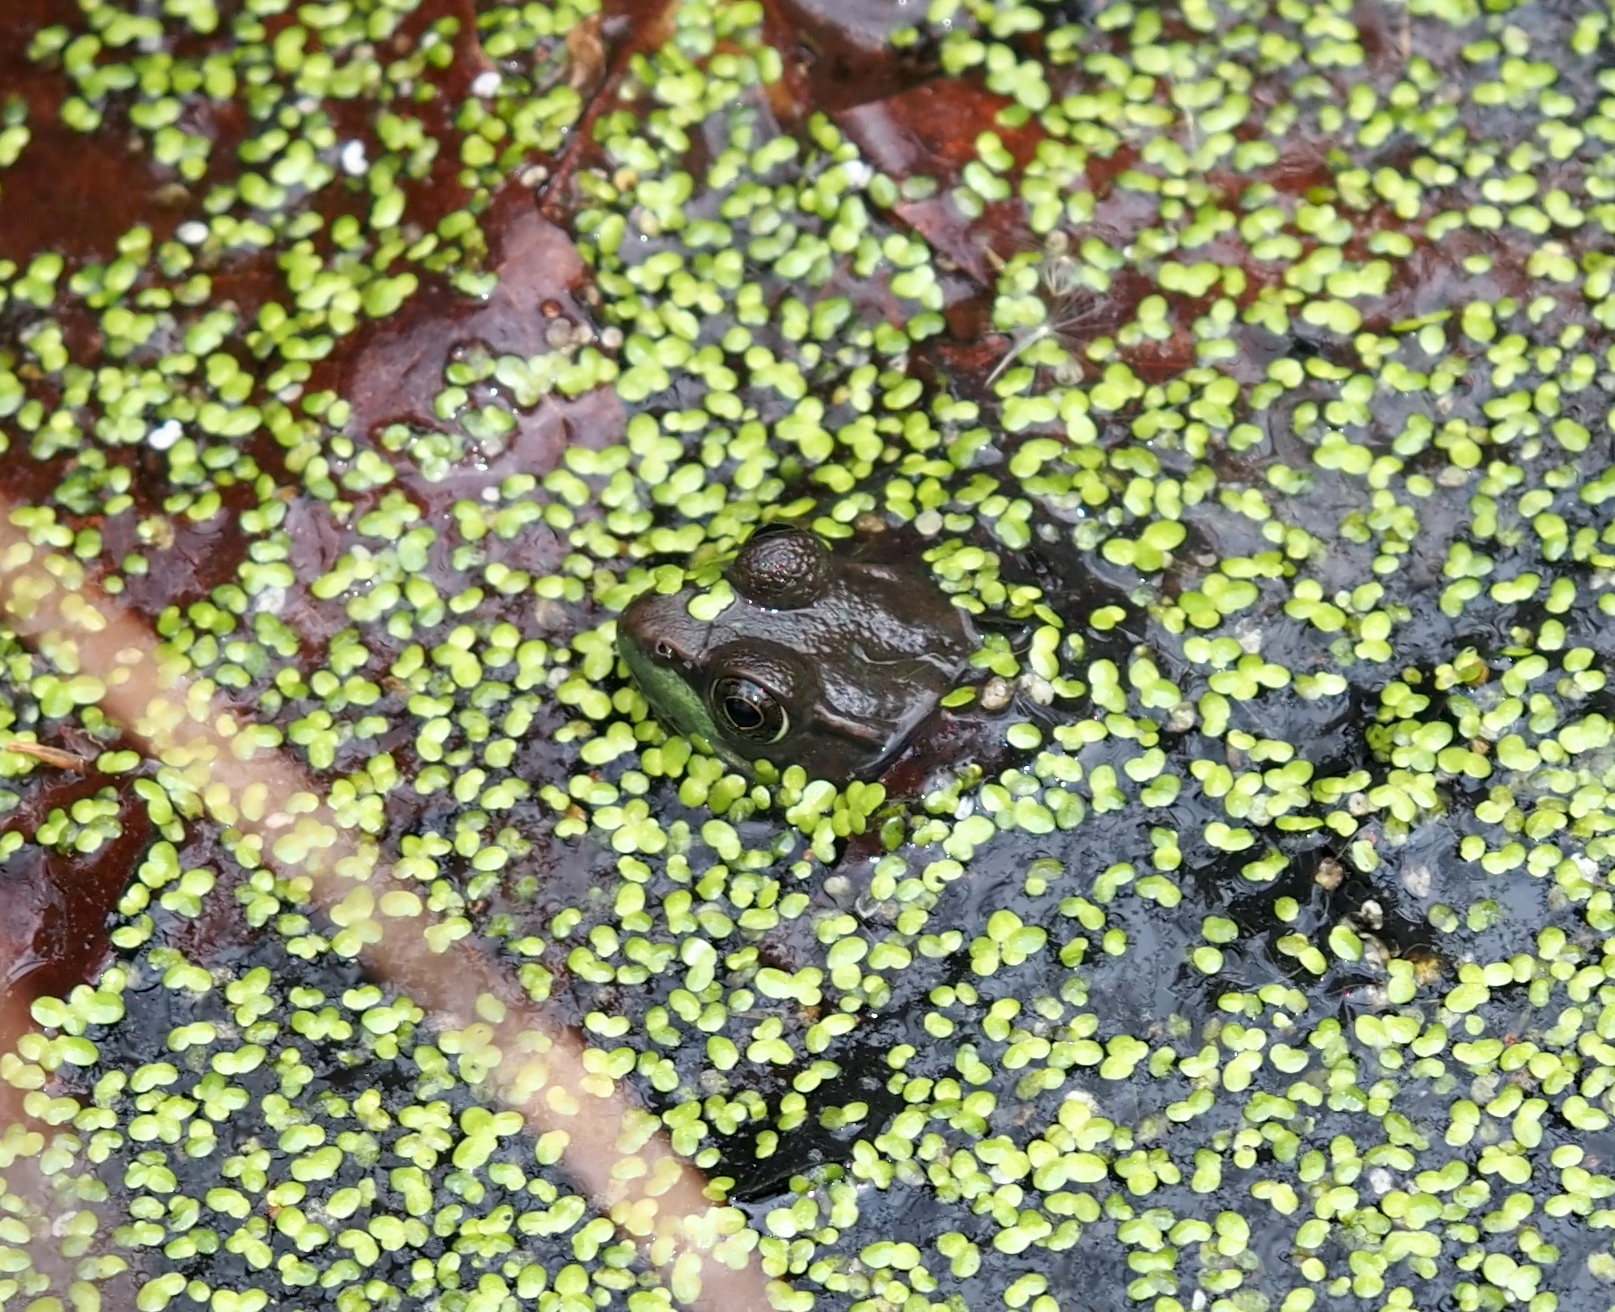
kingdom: Animalia
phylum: Chordata
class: Amphibia
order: Anura
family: Ranidae
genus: Lithobates
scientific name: Lithobates clamitans
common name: Green frog
